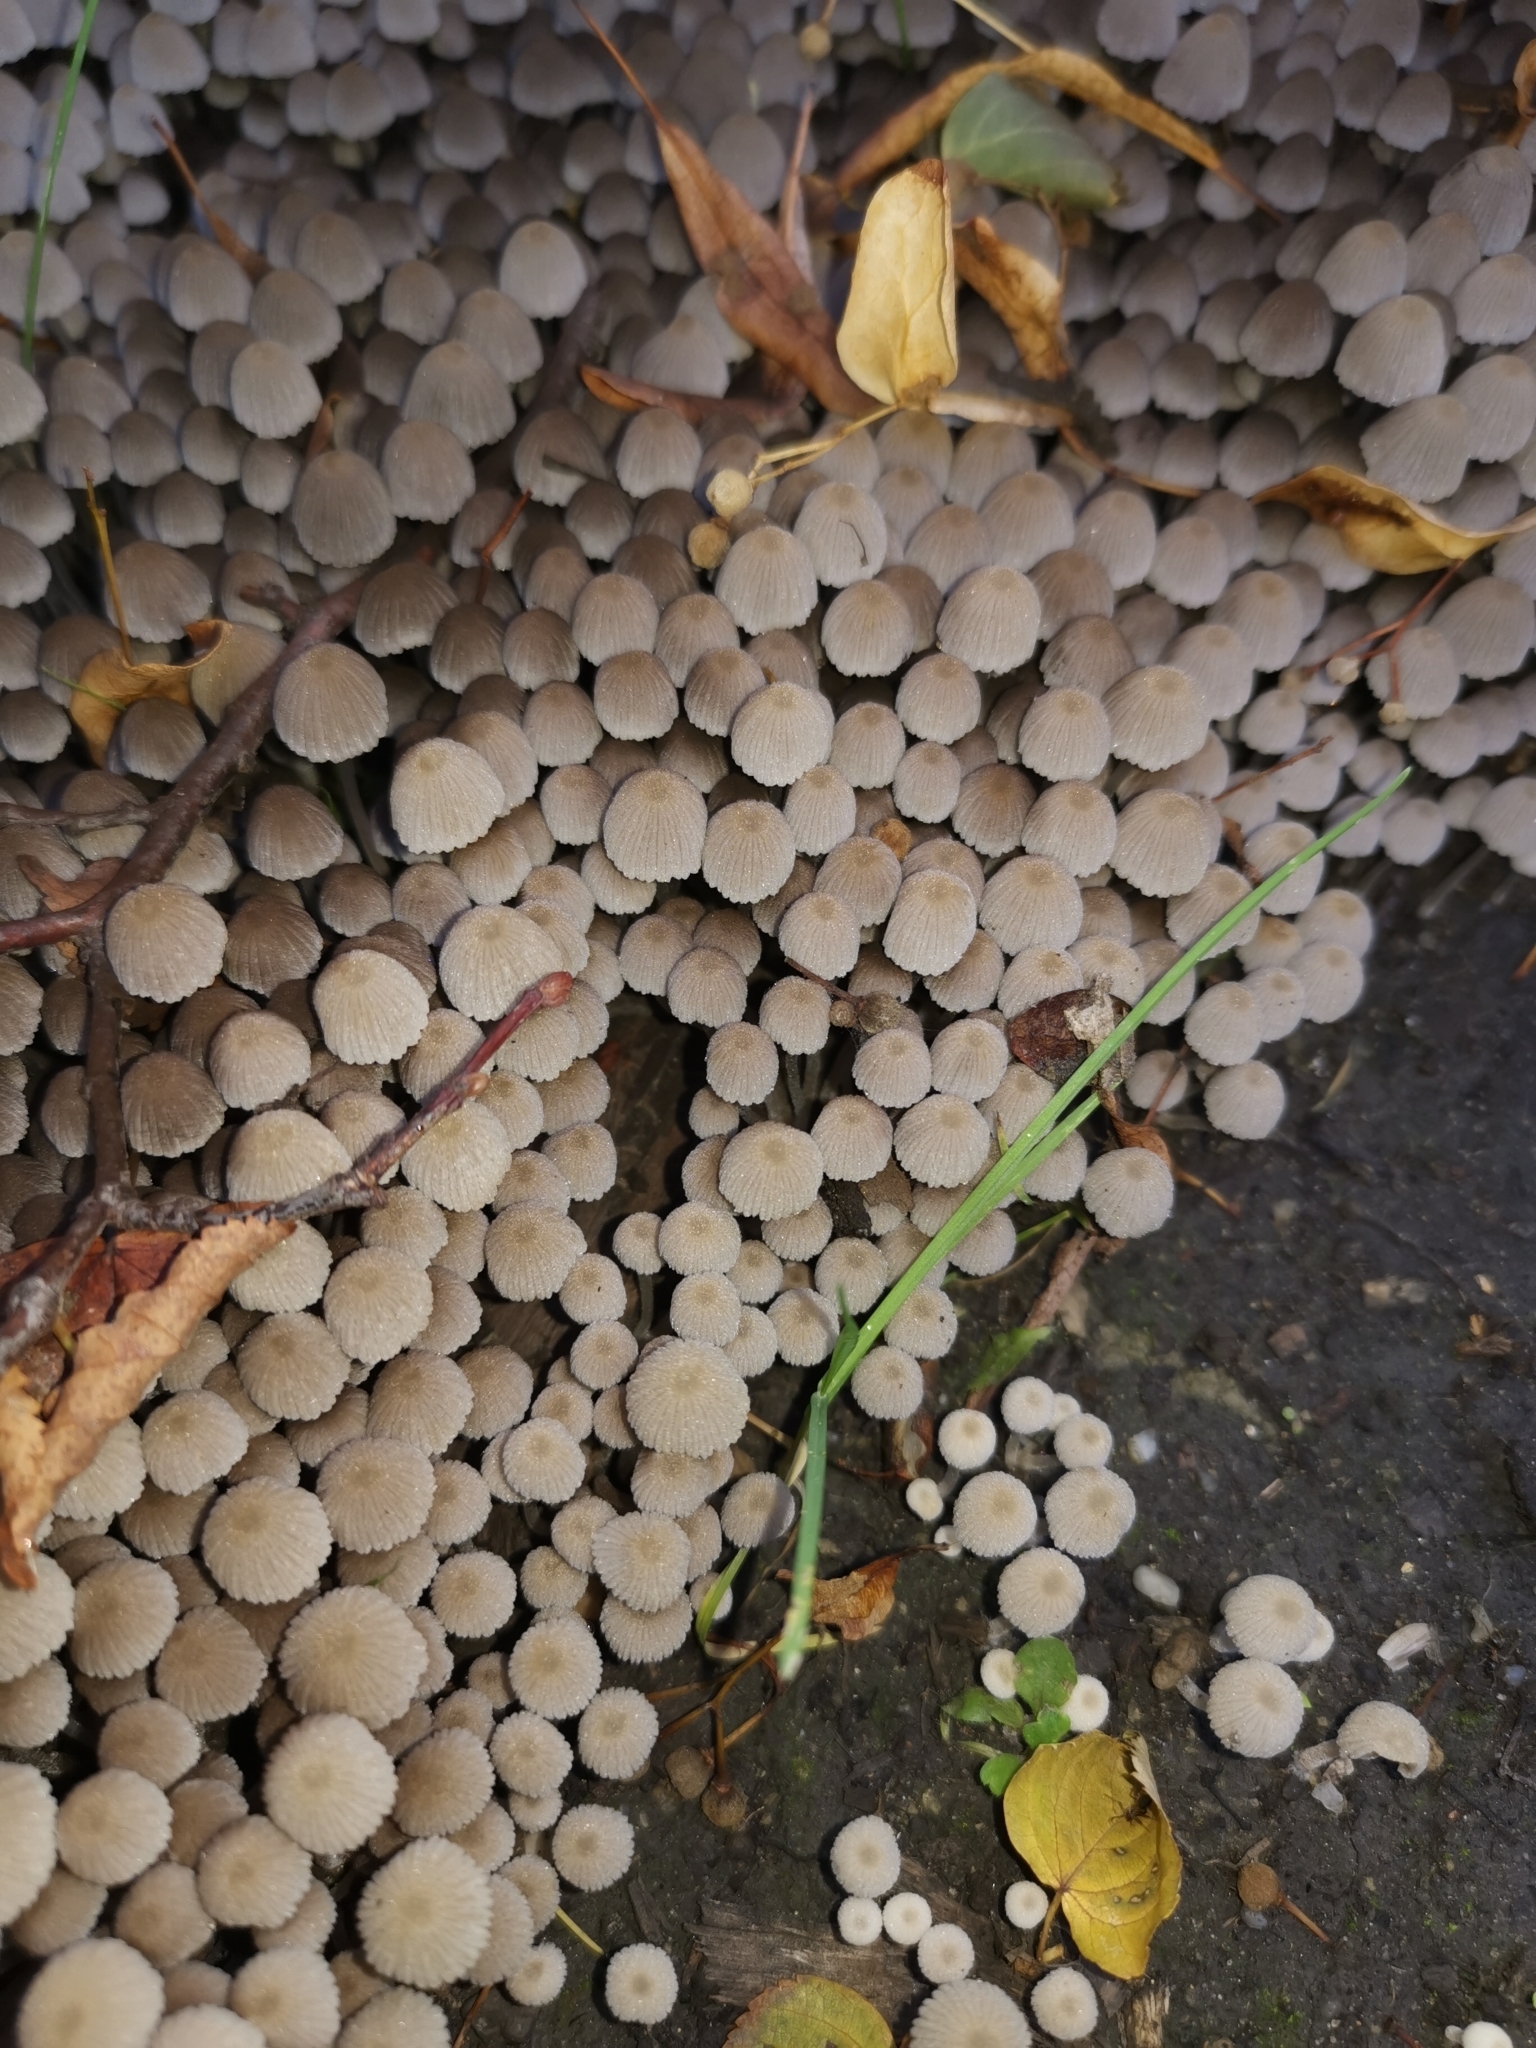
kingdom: Fungi
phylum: Basidiomycota
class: Agaricomycetes
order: Agaricales
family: Psathyrellaceae
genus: Coprinellus
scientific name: Coprinellus disseminatus
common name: Fairies' bonnets
